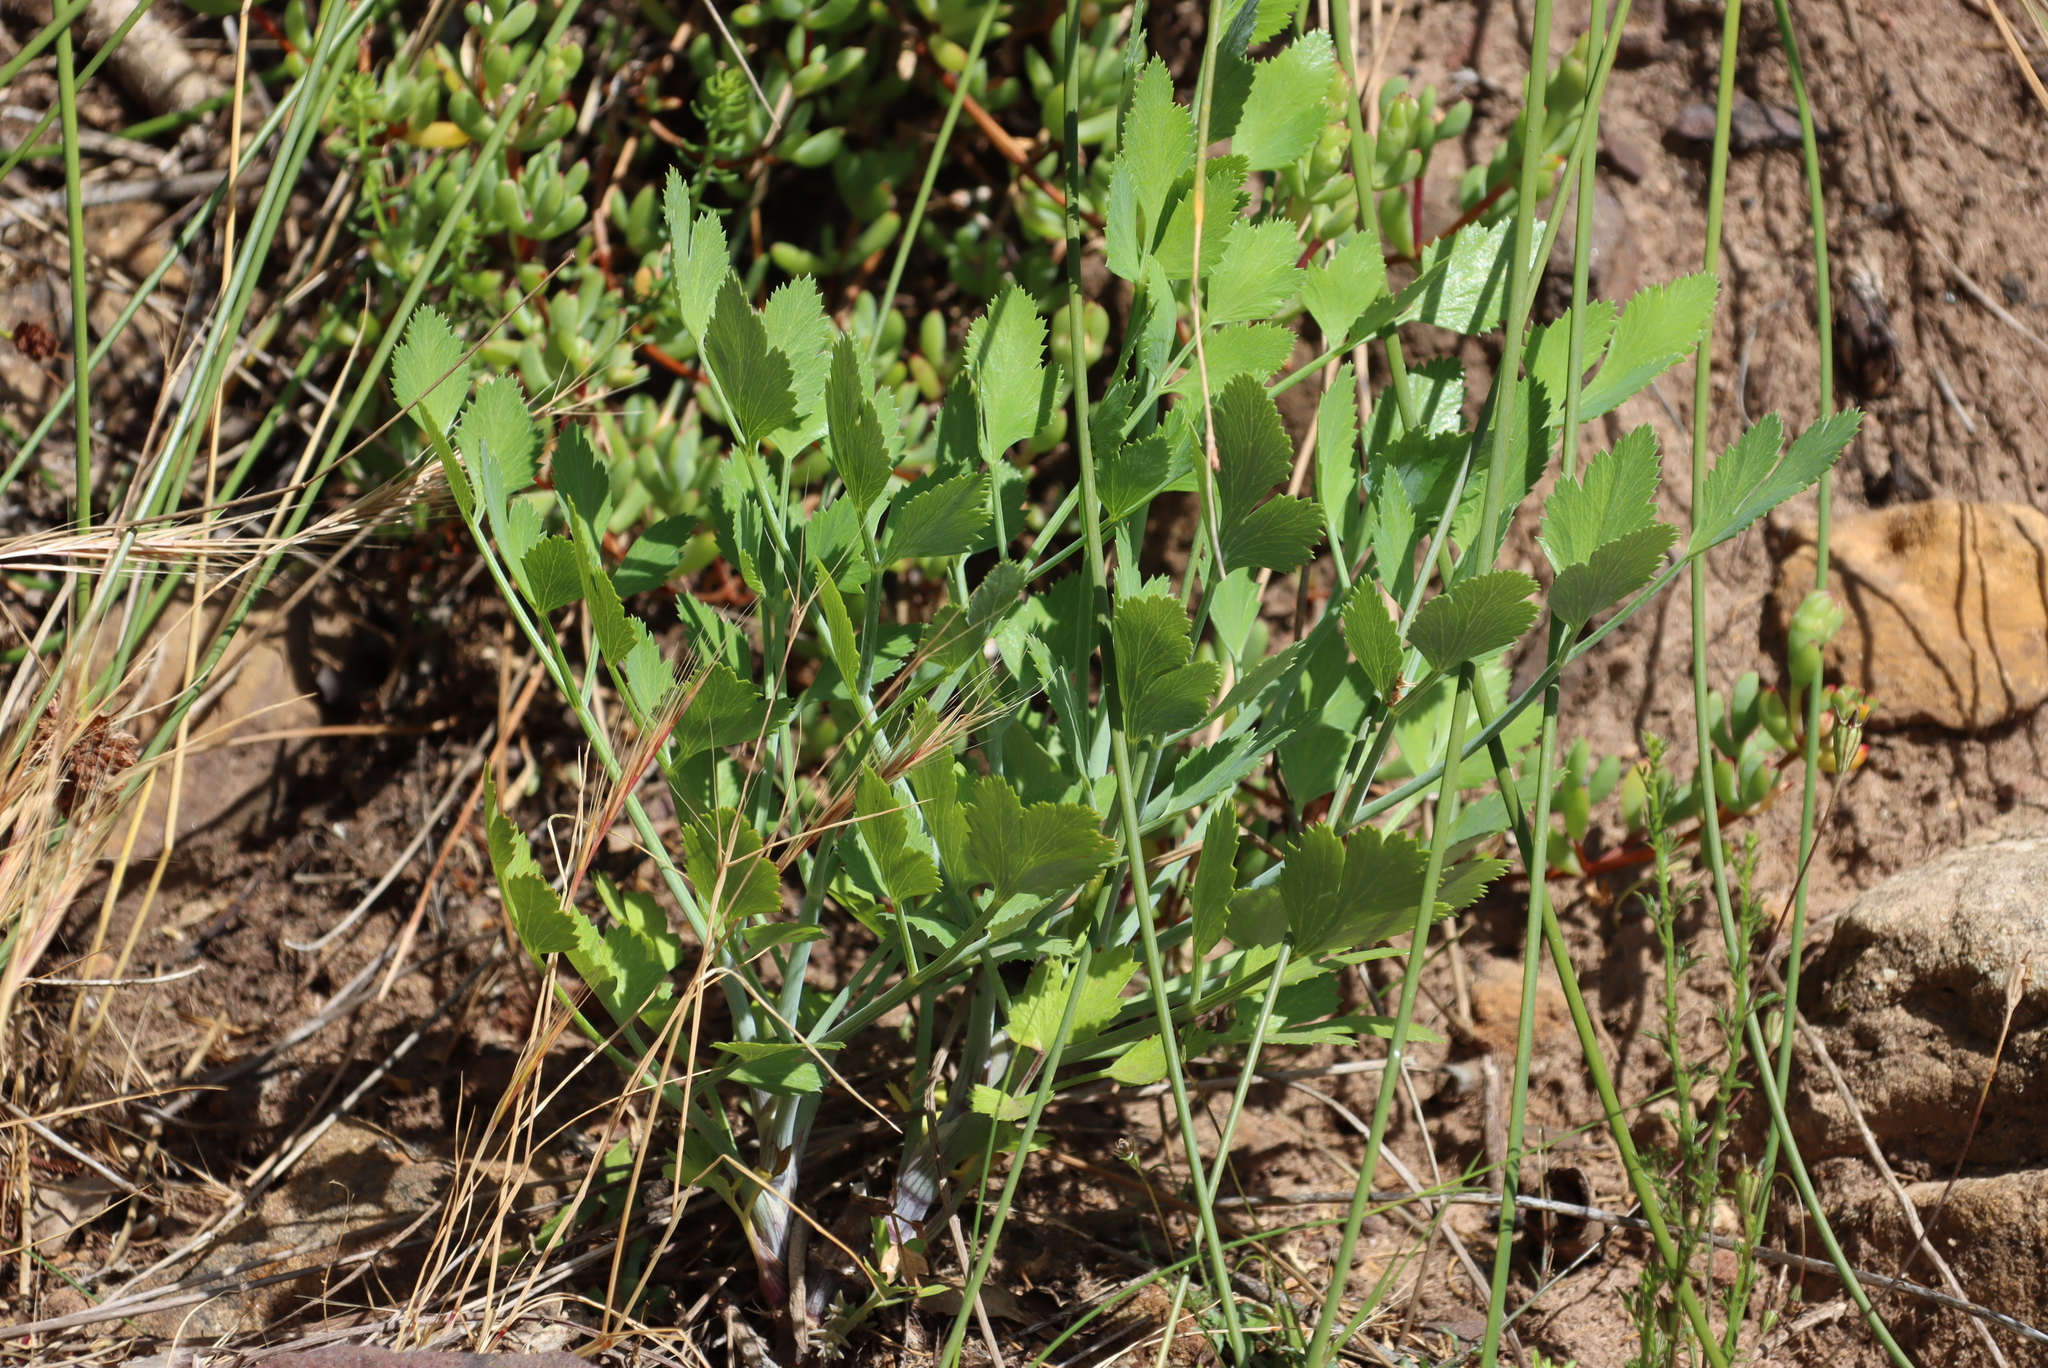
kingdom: Plantae
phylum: Tracheophyta
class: Magnoliopsida
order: Apiales
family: Apiaceae
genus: Notobubon
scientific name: Notobubon galbanum
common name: Blisterbush
